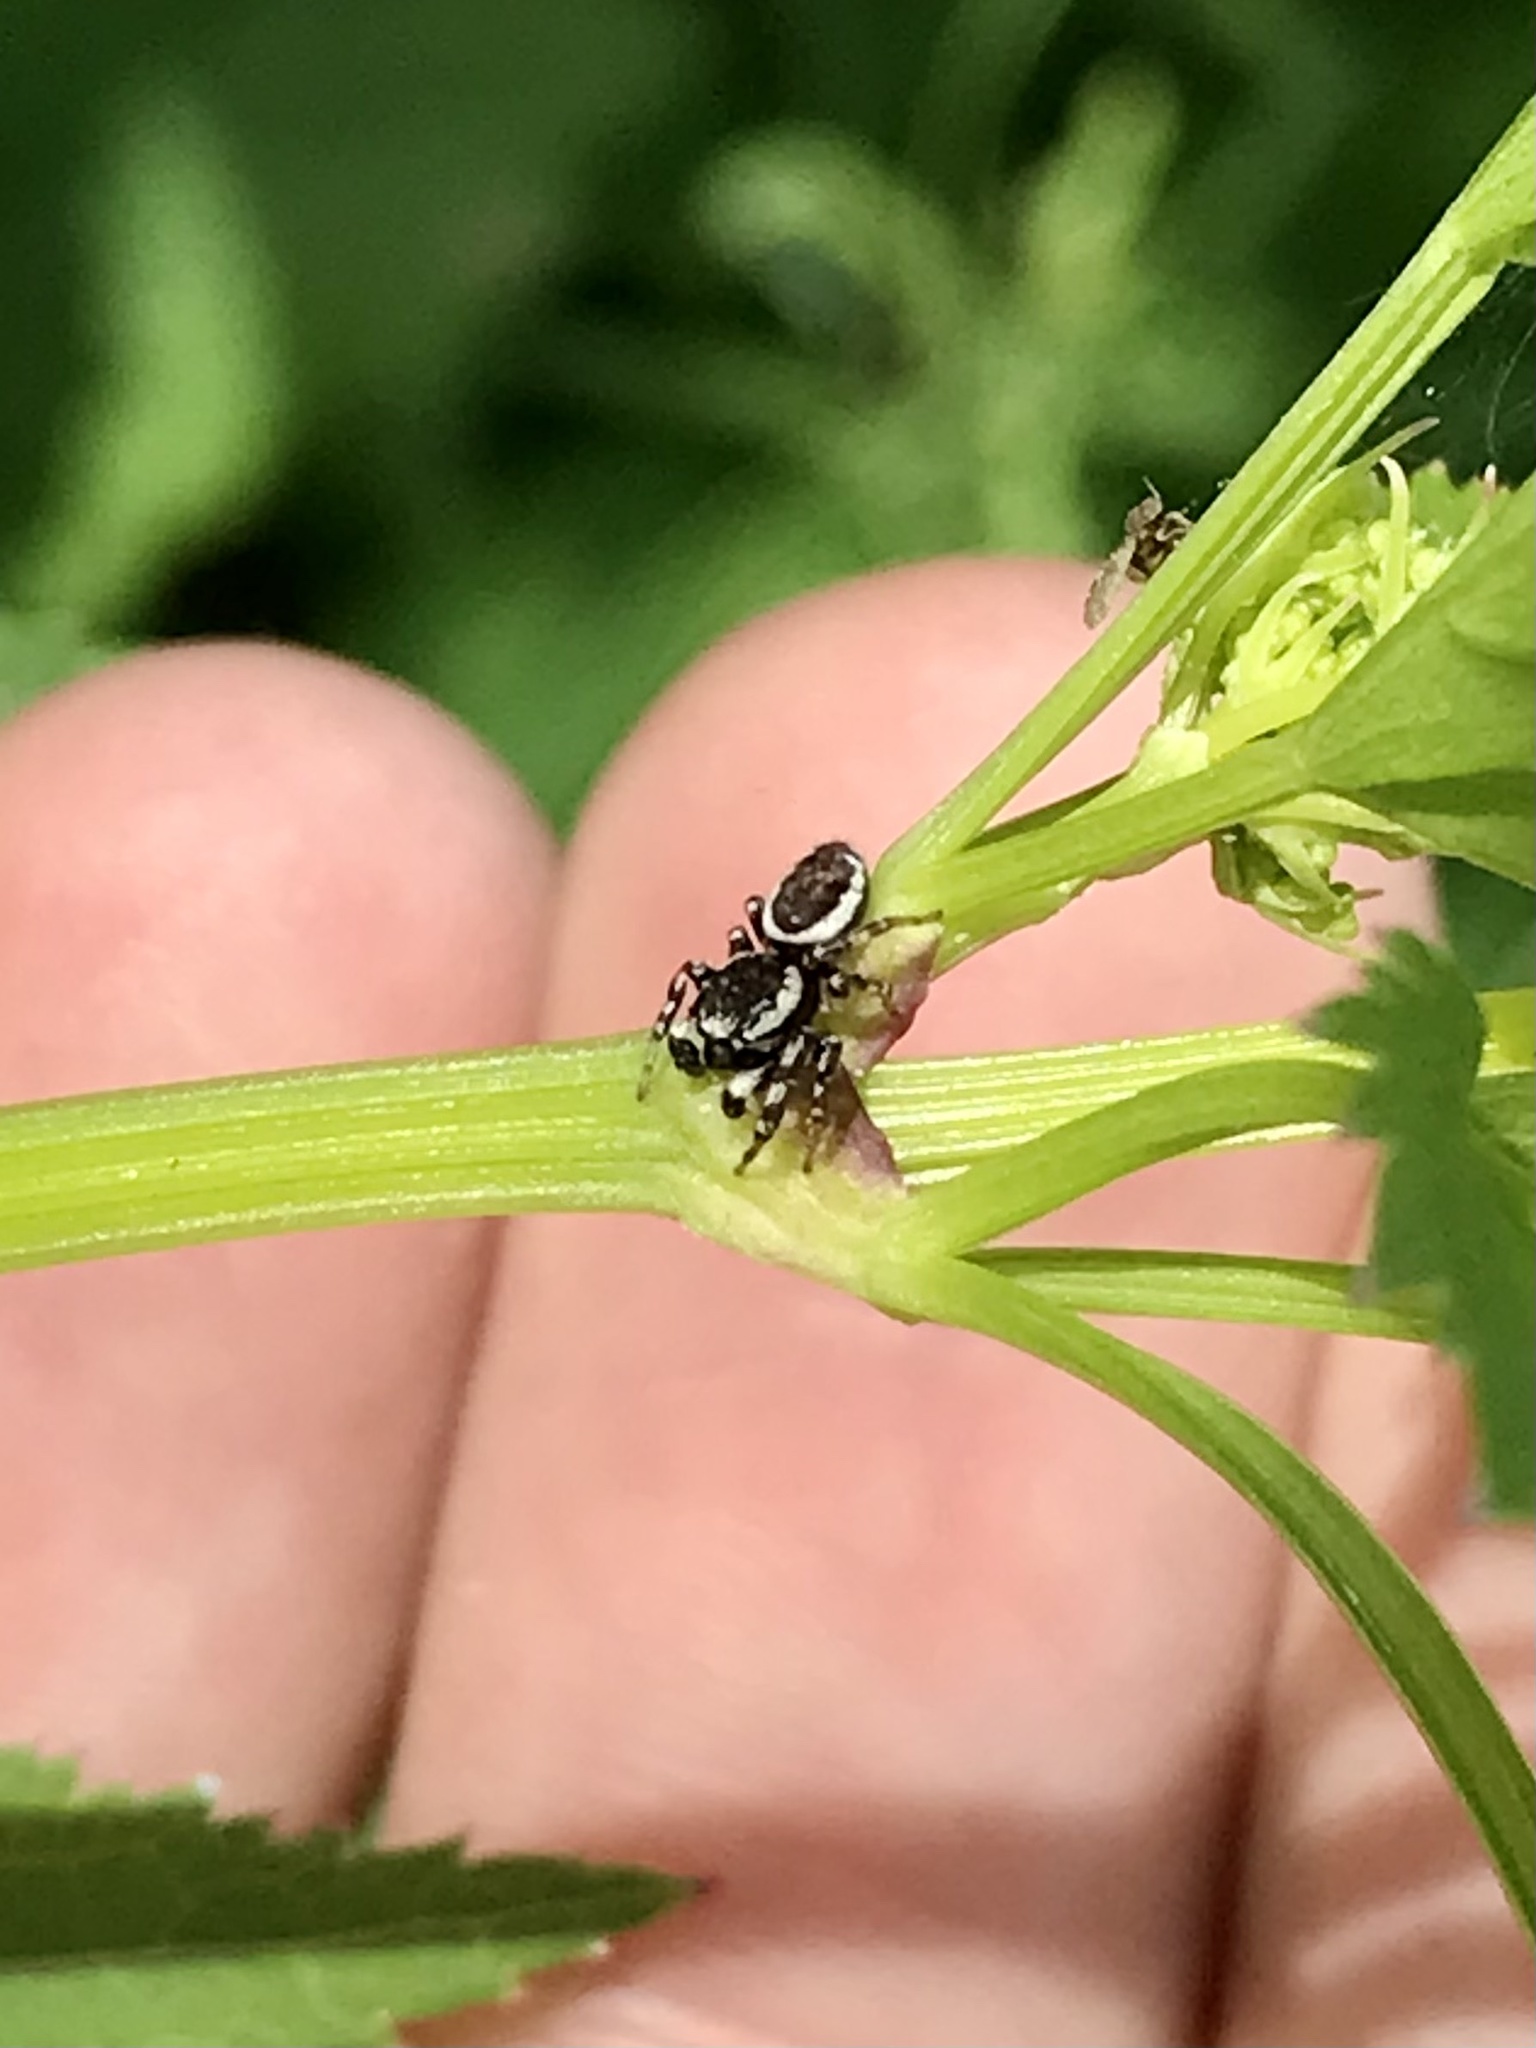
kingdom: Animalia
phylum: Arthropoda
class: Arachnida
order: Araneae
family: Salticidae
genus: Pelegrina
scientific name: Pelegrina proterva
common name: Common white-cheeked jumping spider
